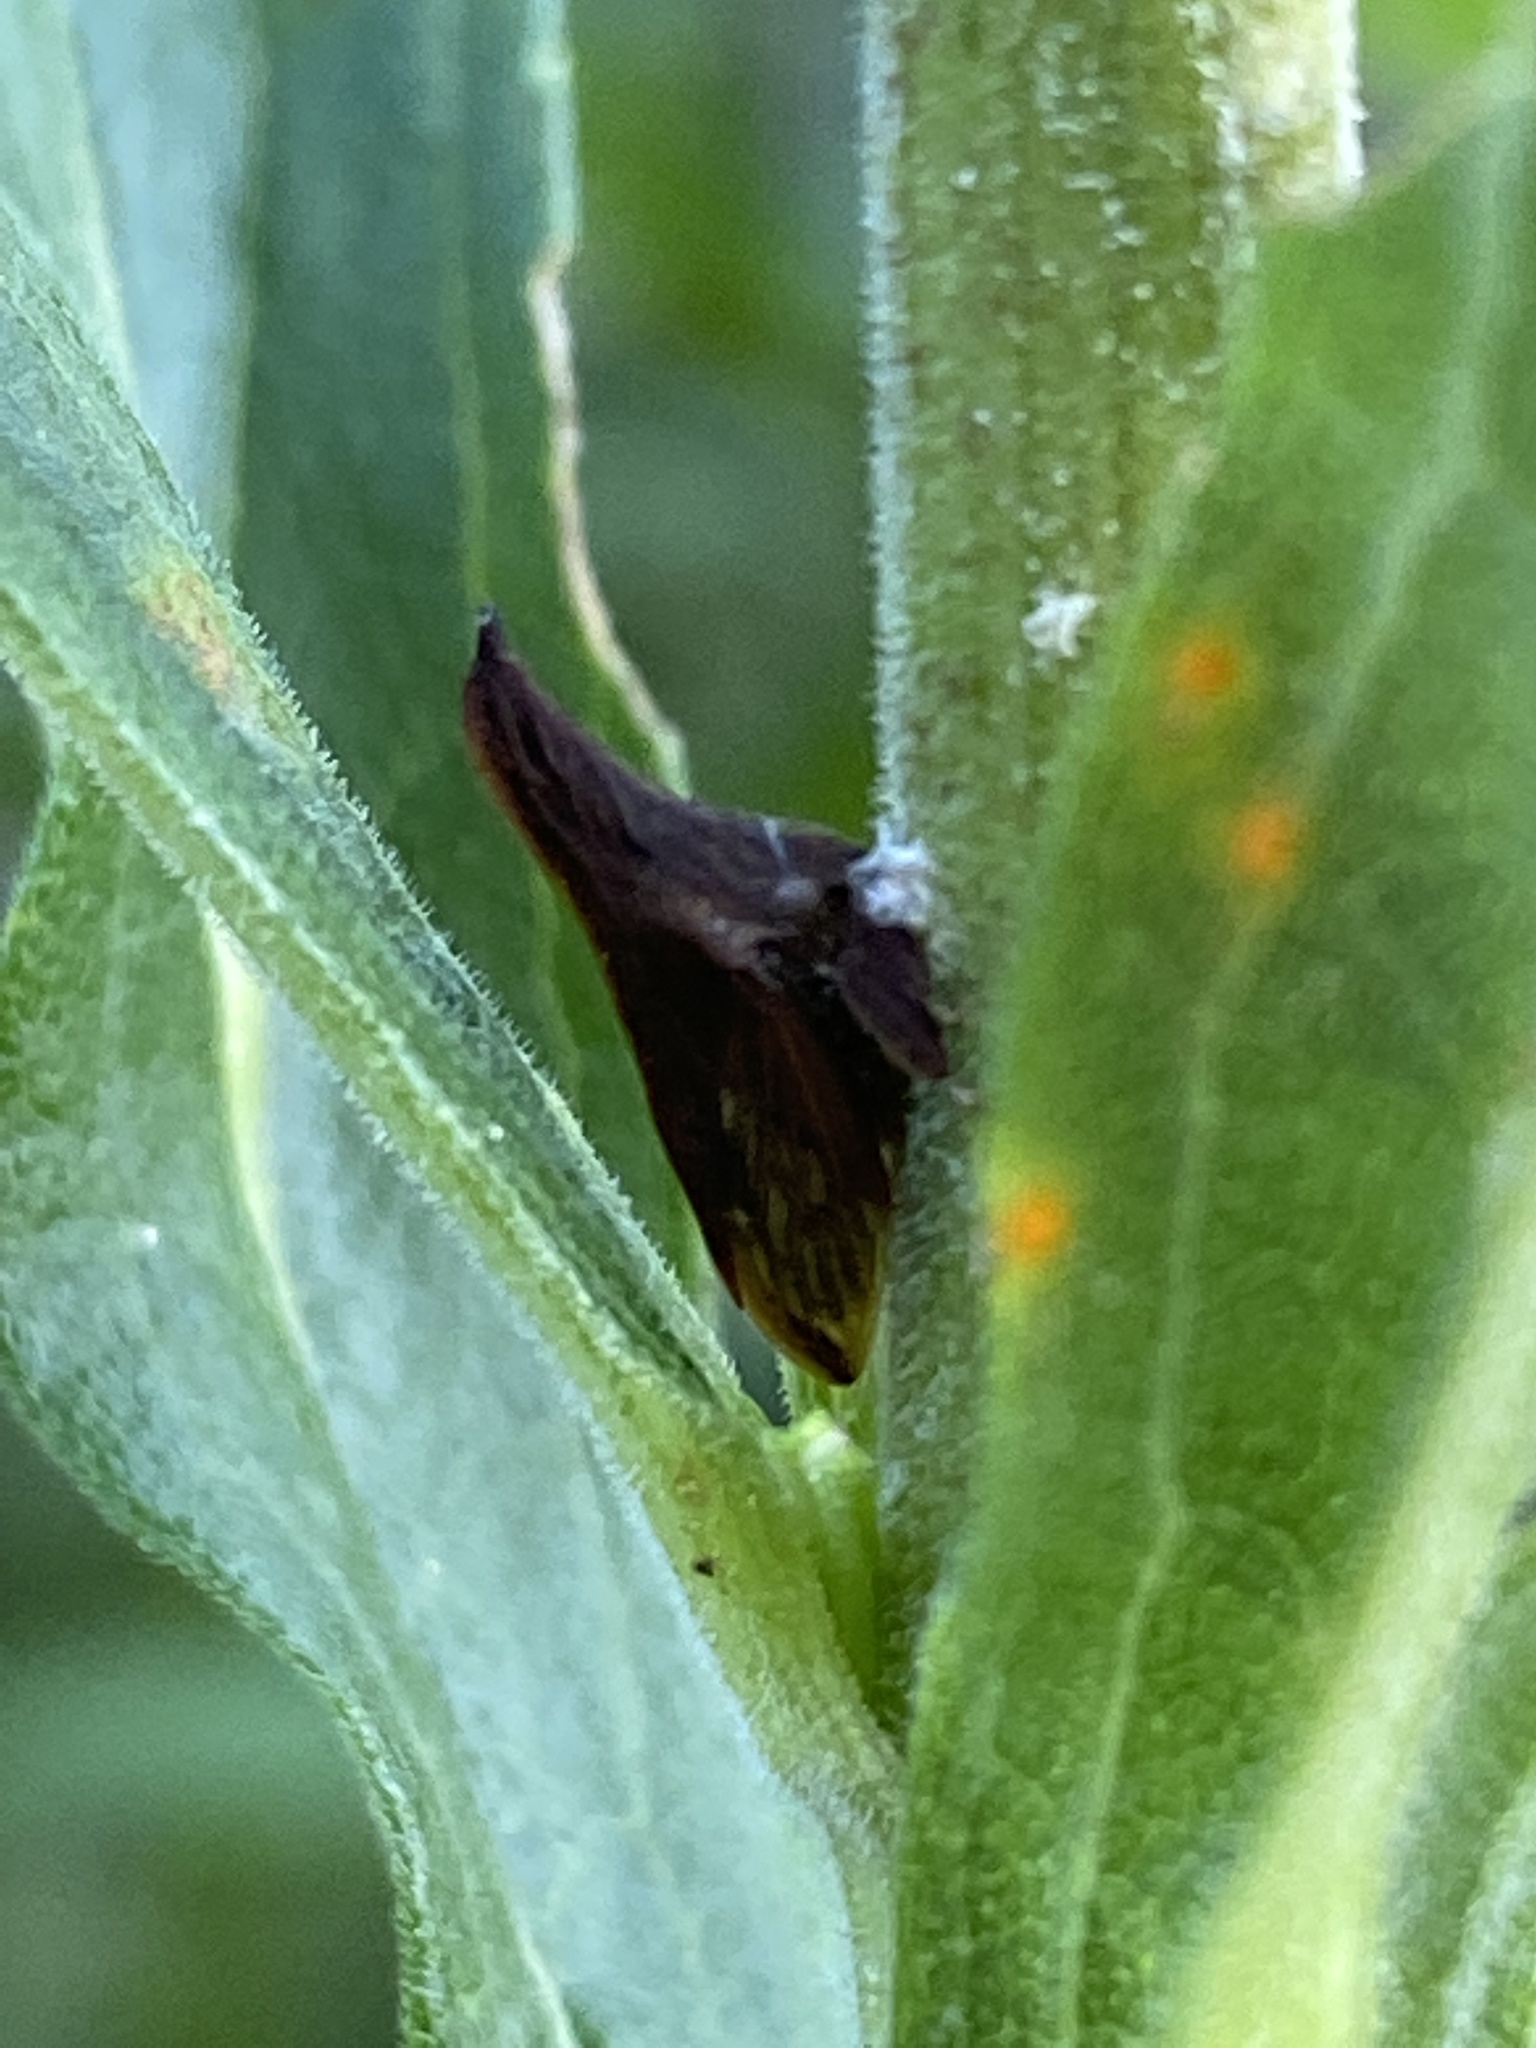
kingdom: Animalia
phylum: Arthropoda
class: Insecta
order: Hemiptera
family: Membracidae
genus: Enchenopa
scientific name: Enchenopa latipes
